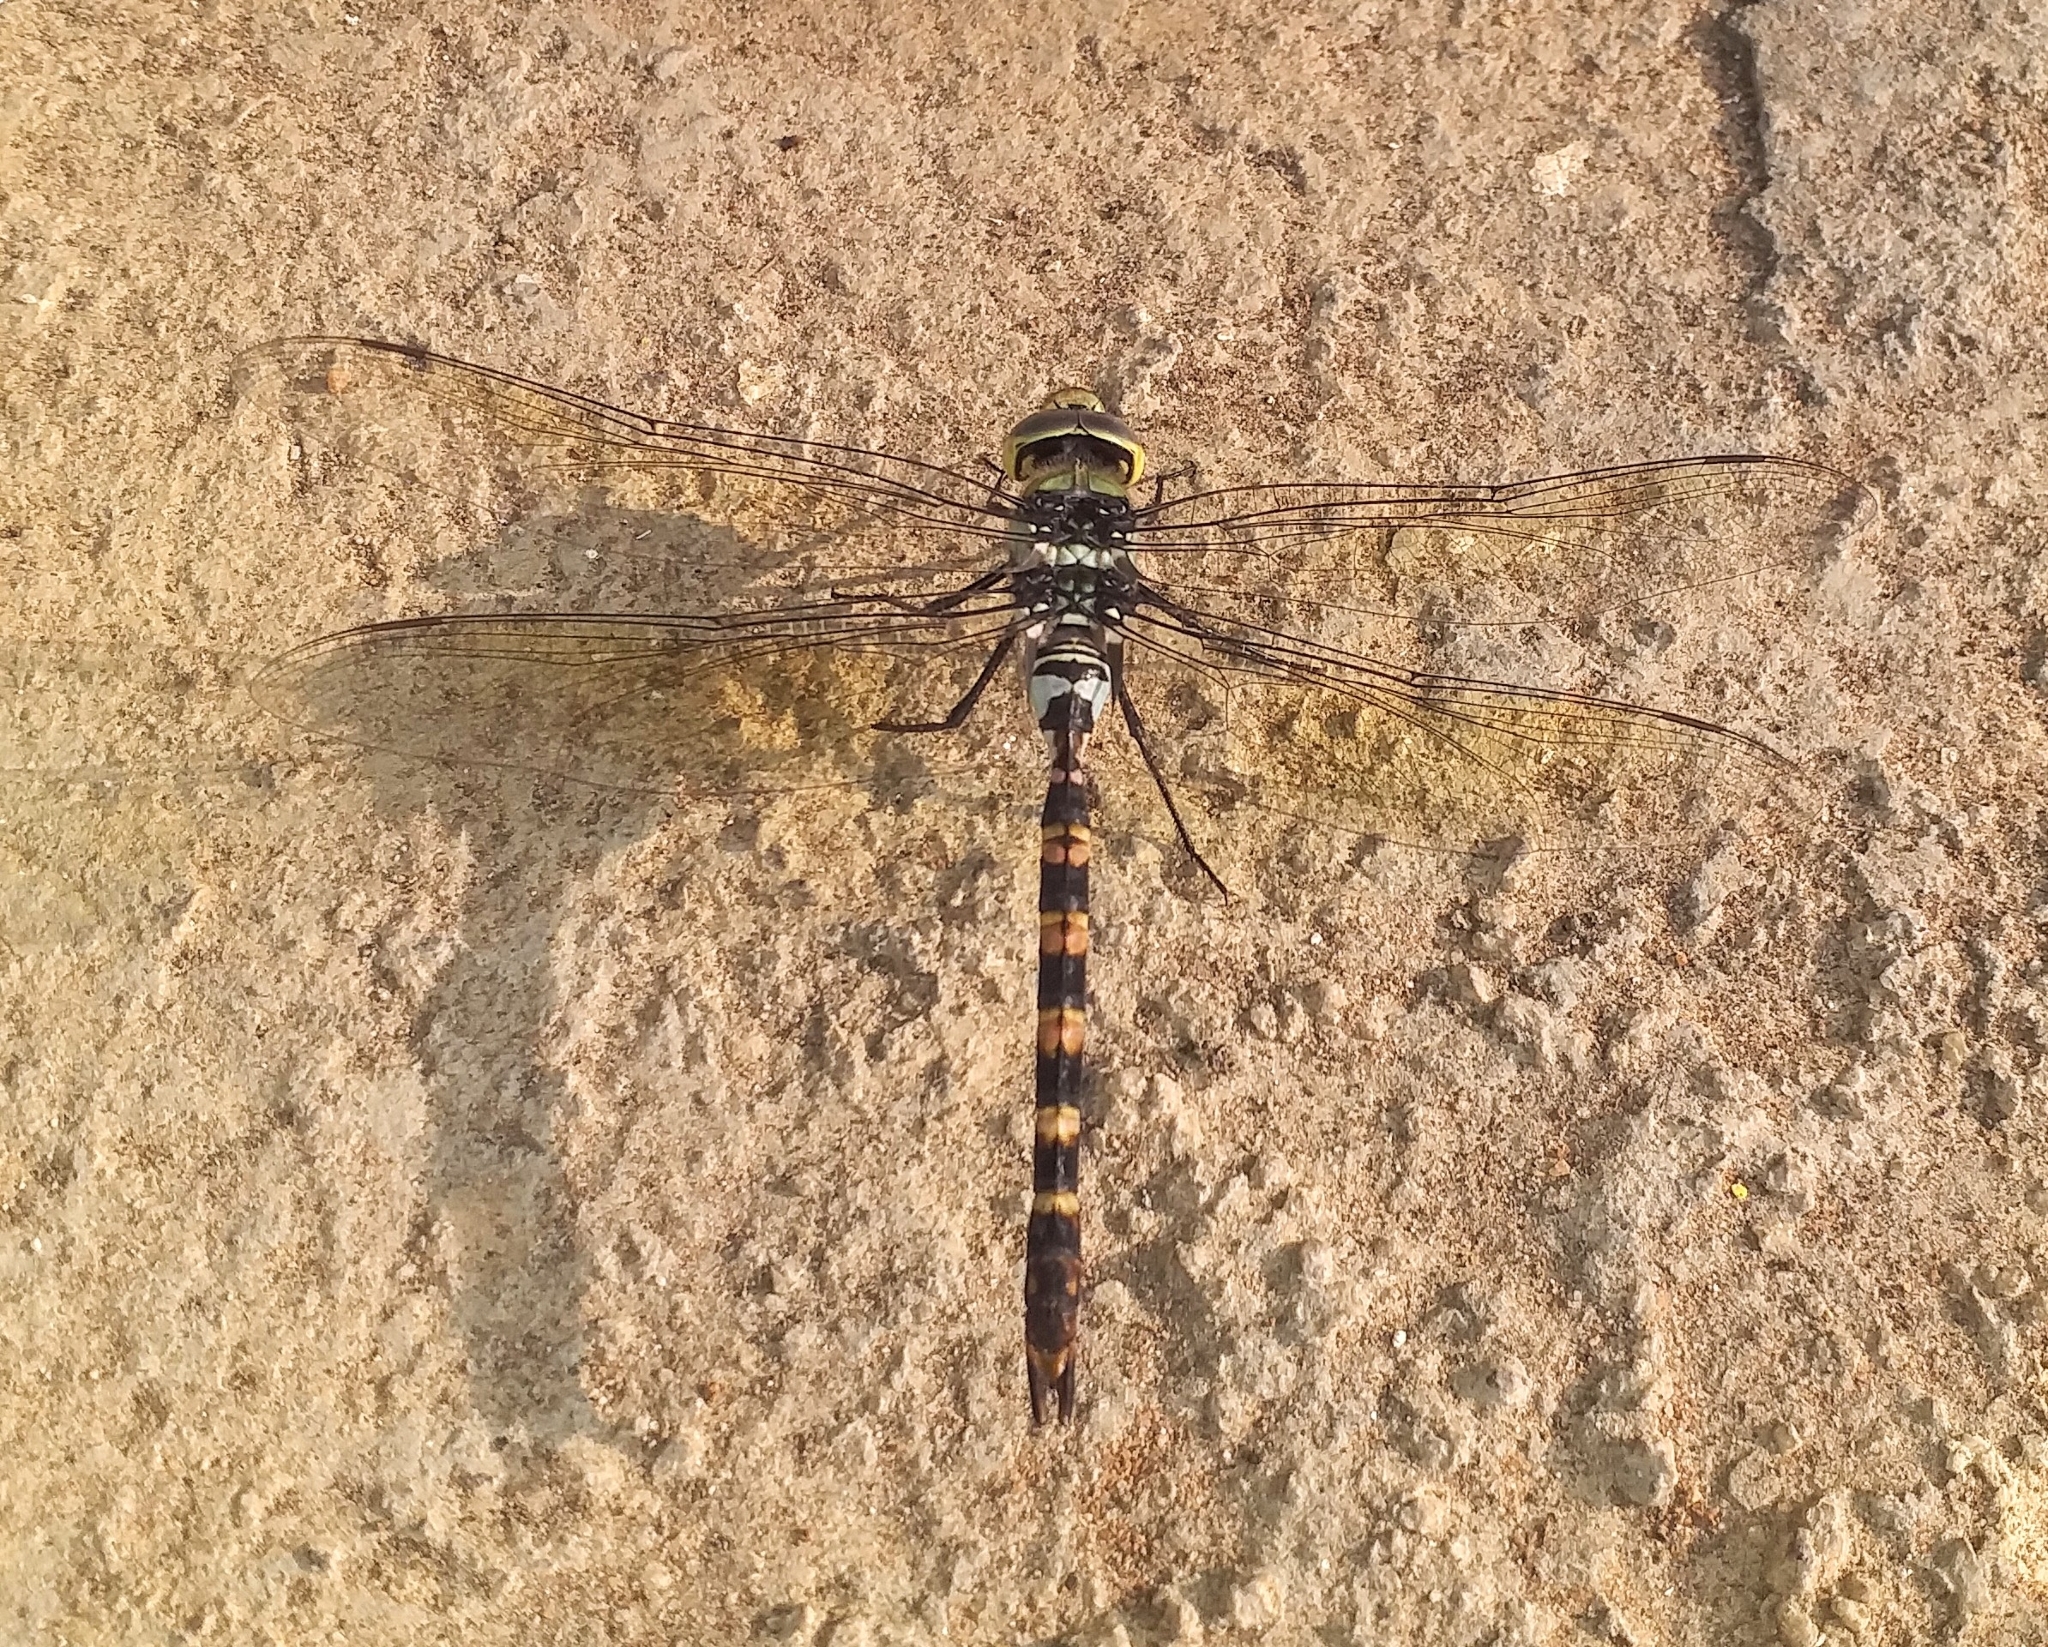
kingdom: Animalia
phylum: Arthropoda
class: Insecta
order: Odonata
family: Aeshnidae
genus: Anax
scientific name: Anax immaculifrons
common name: Magnificent emperor
